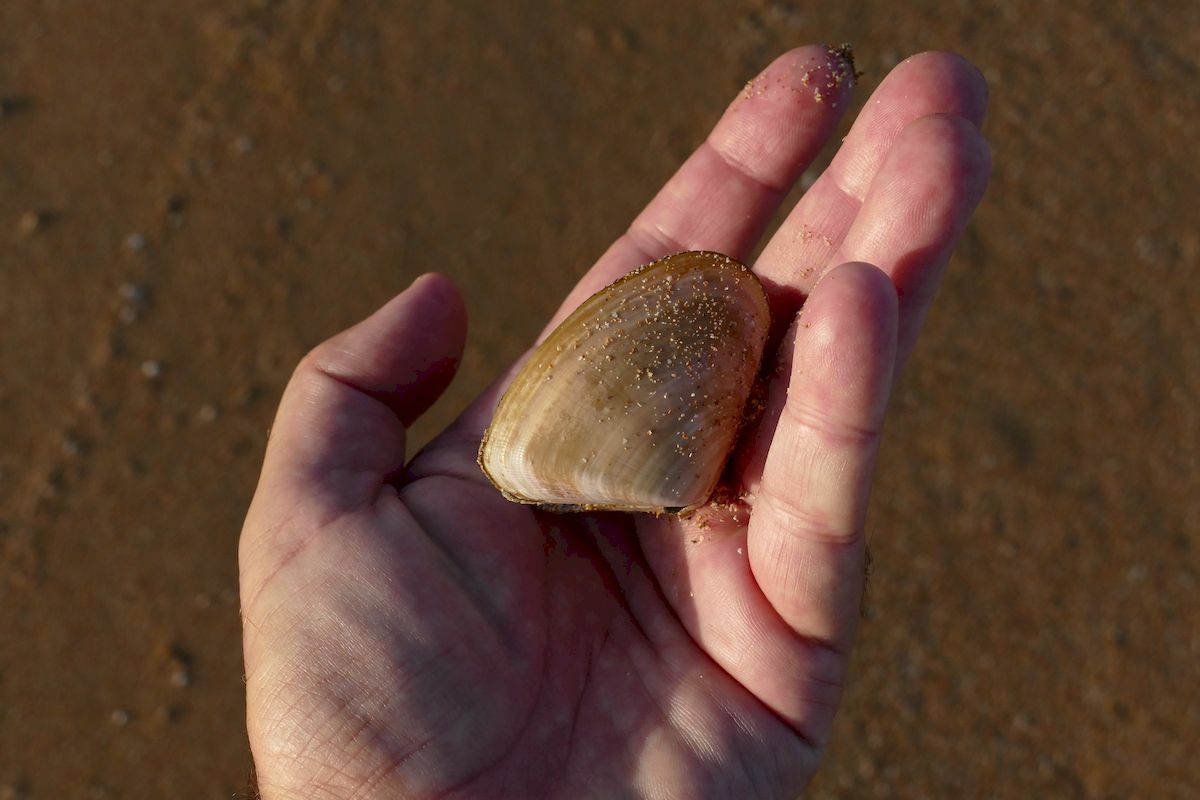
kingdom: Animalia
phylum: Mollusca
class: Bivalvia
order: Cardiida
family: Donacidae
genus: Latona
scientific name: Latona deltoides
